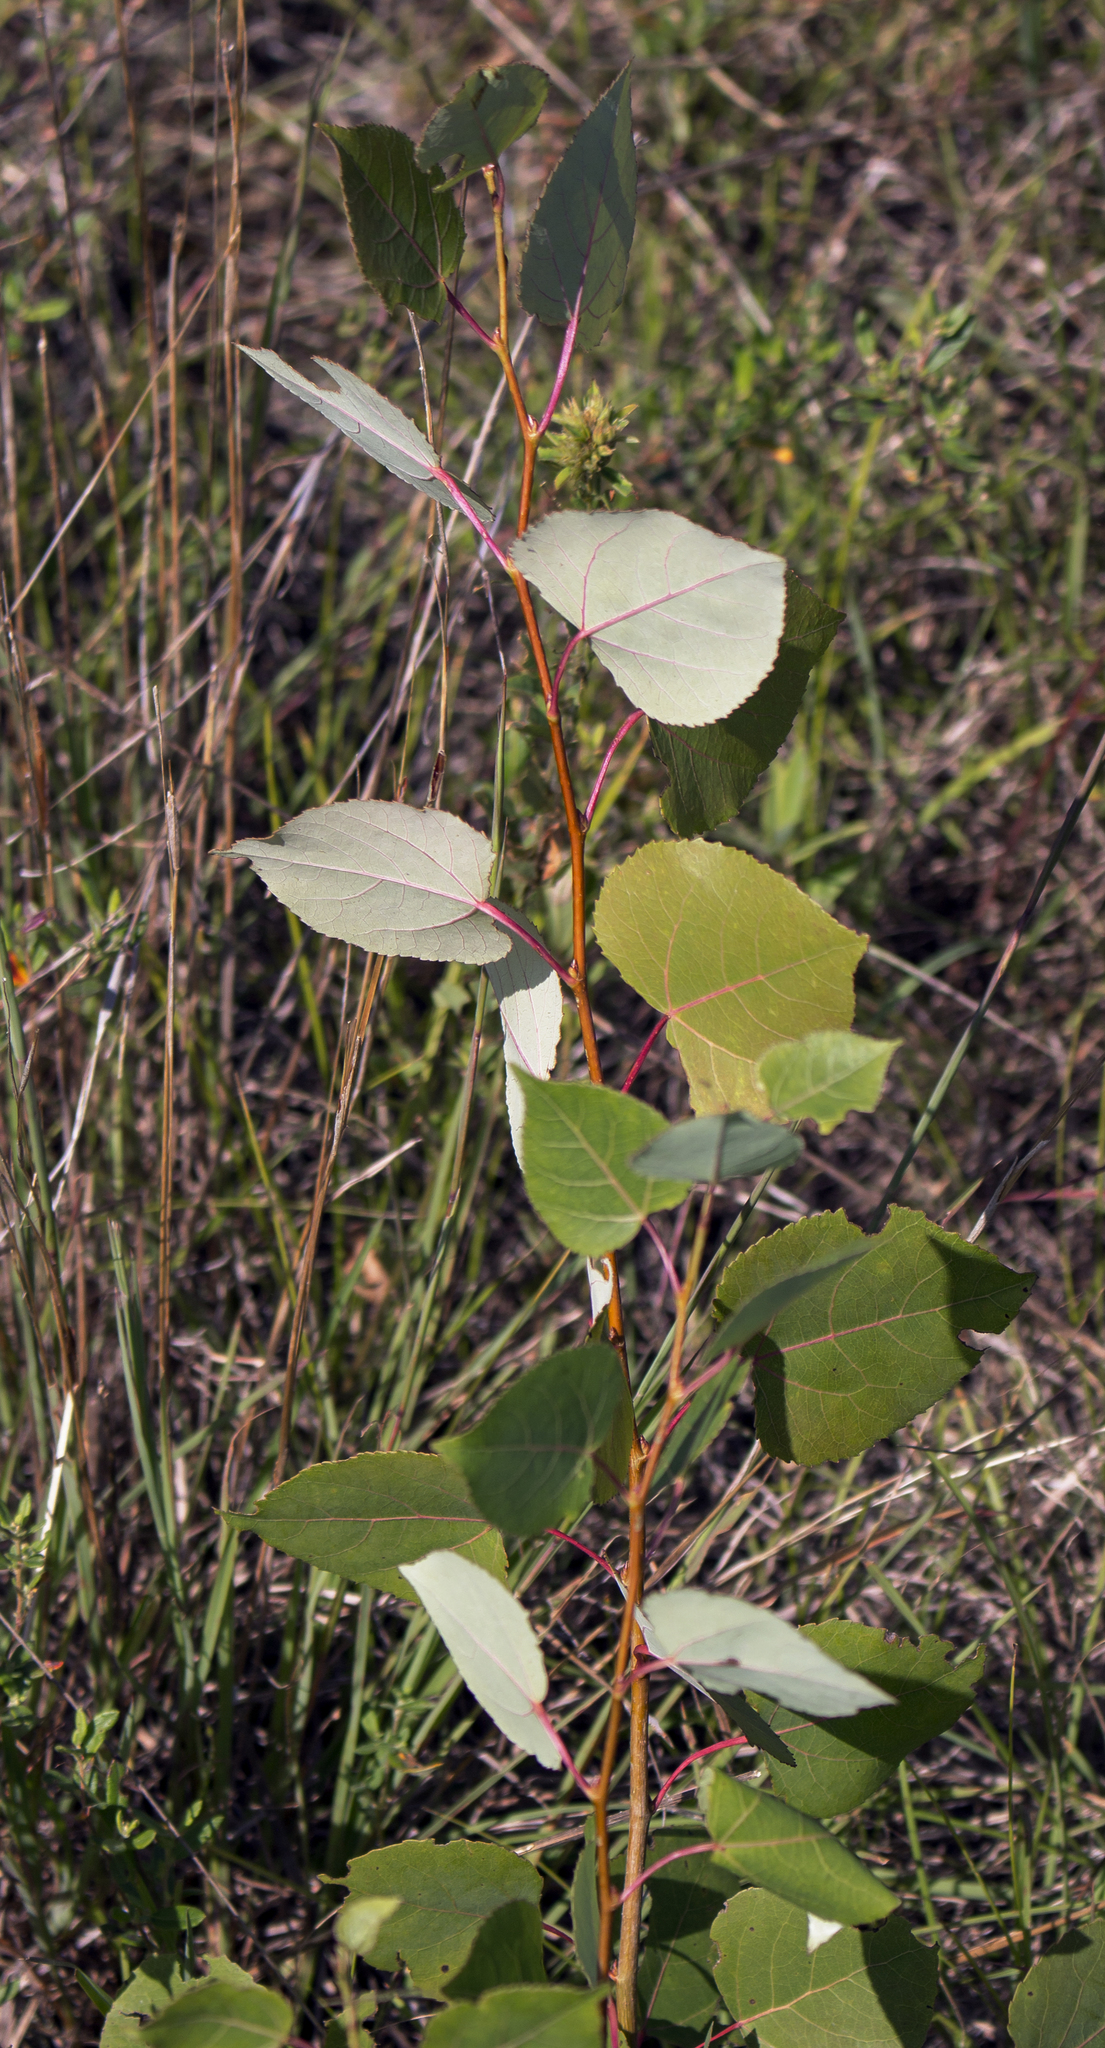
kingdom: Plantae
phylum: Tracheophyta
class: Magnoliopsida
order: Malpighiales
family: Salicaceae
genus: Populus
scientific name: Populus tremuloides
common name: Quaking aspen
